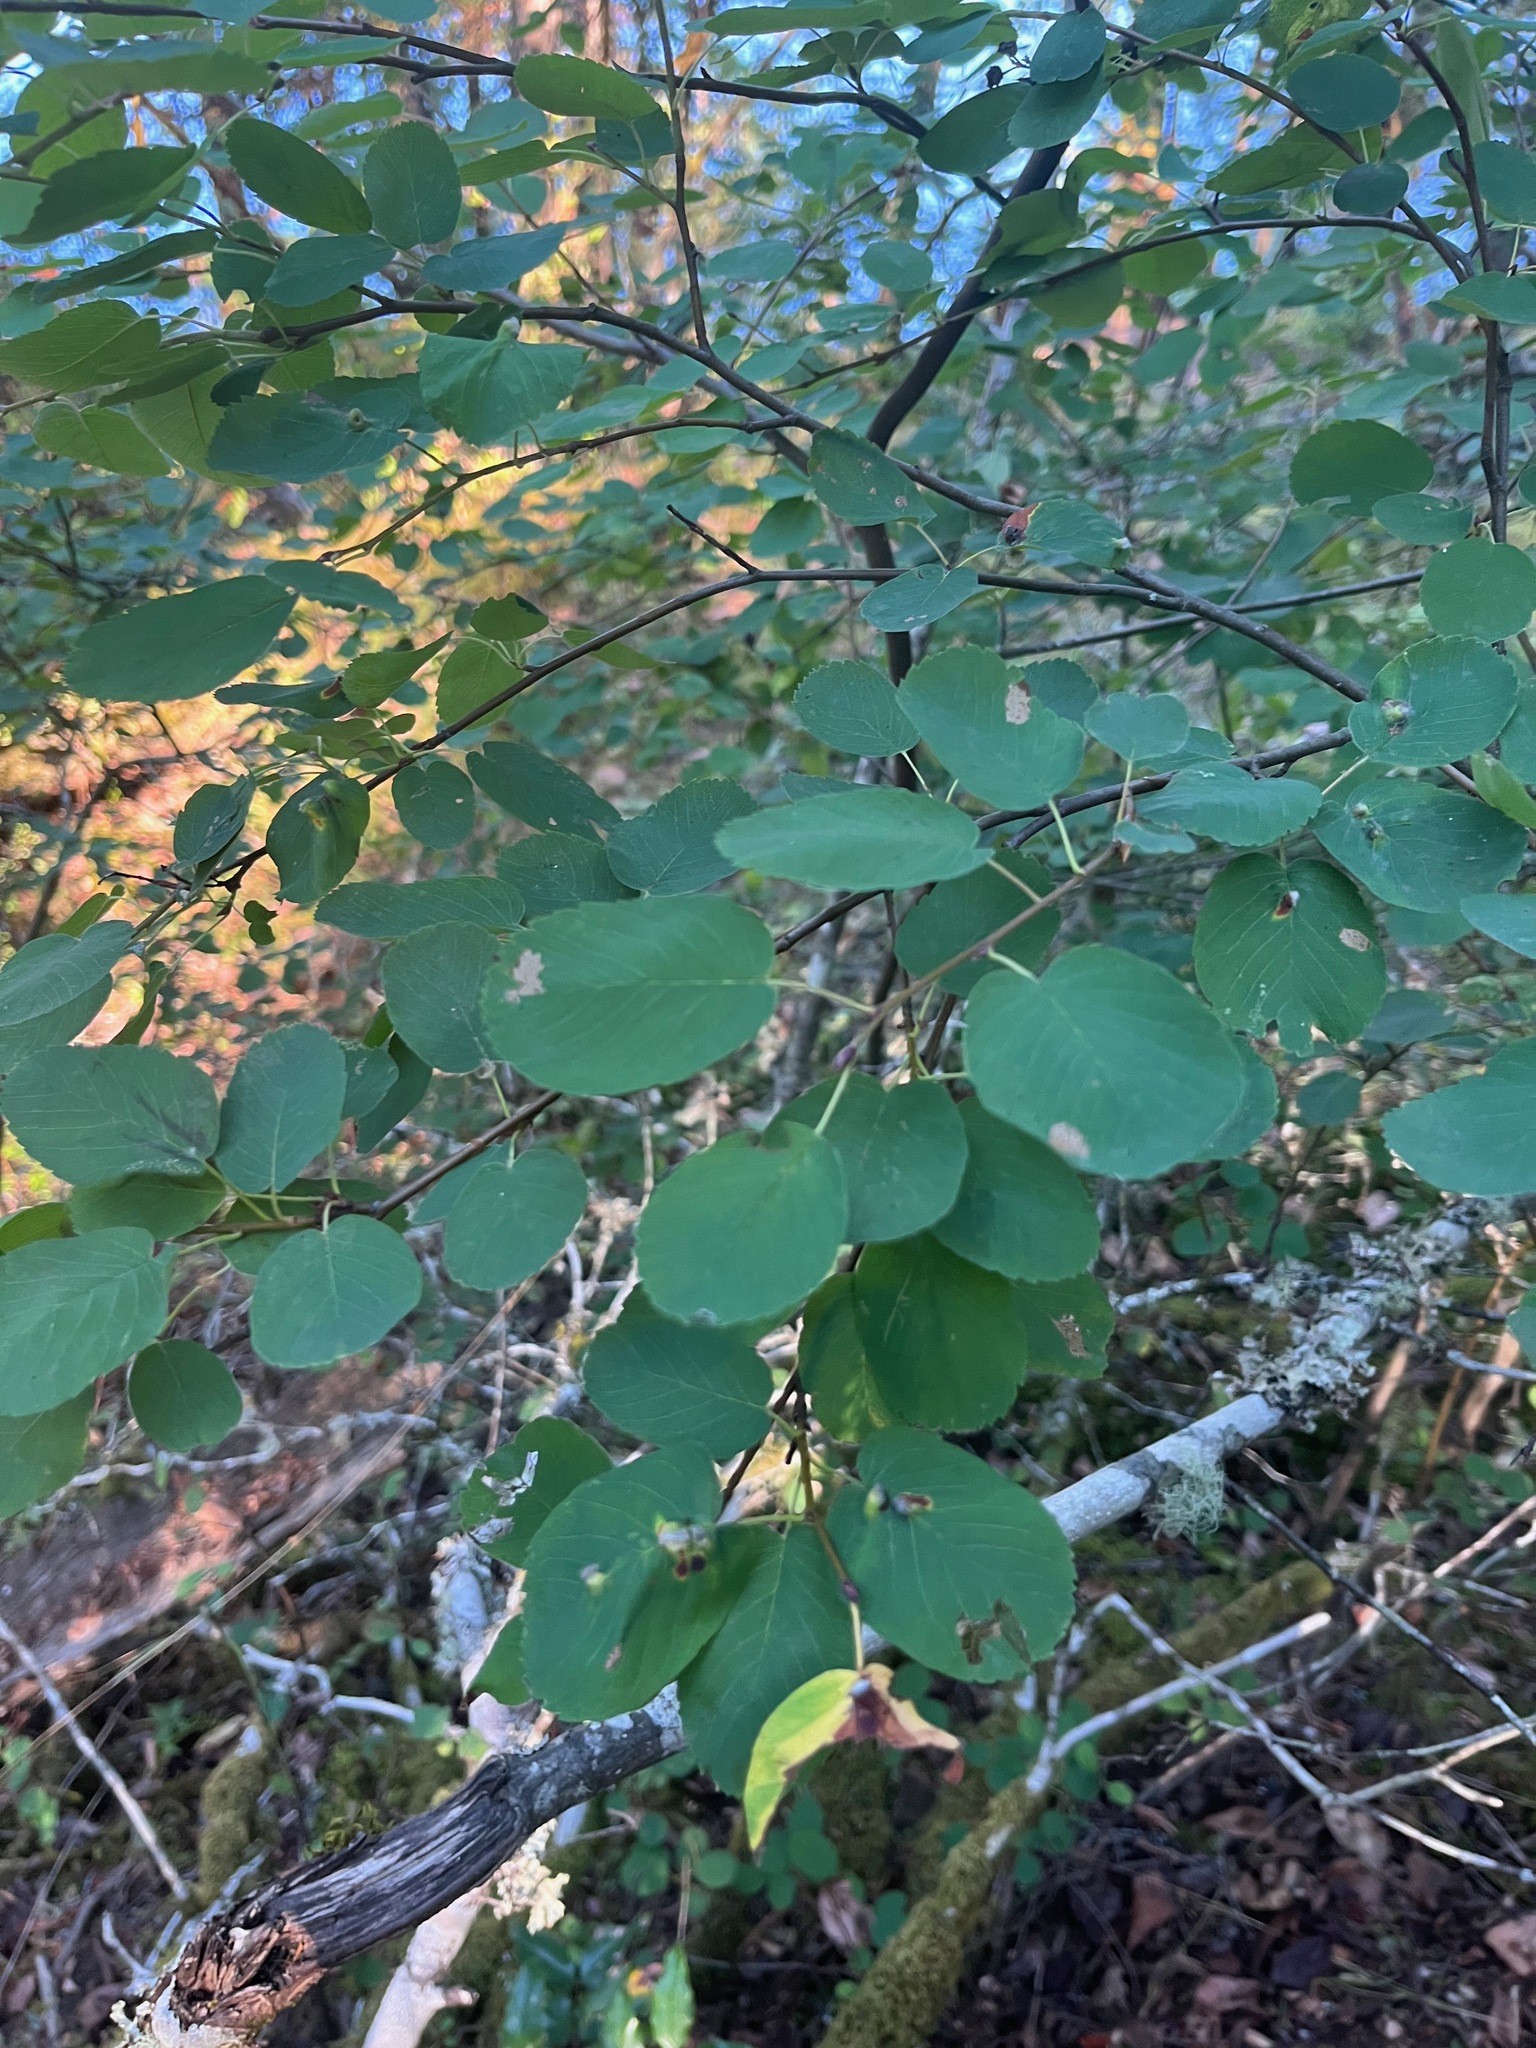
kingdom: Plantae
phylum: Tracheophyta
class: Magnoliopsida
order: Rosales
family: Rosaceae
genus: Amelanchier
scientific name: Amelanchier alnifolia
